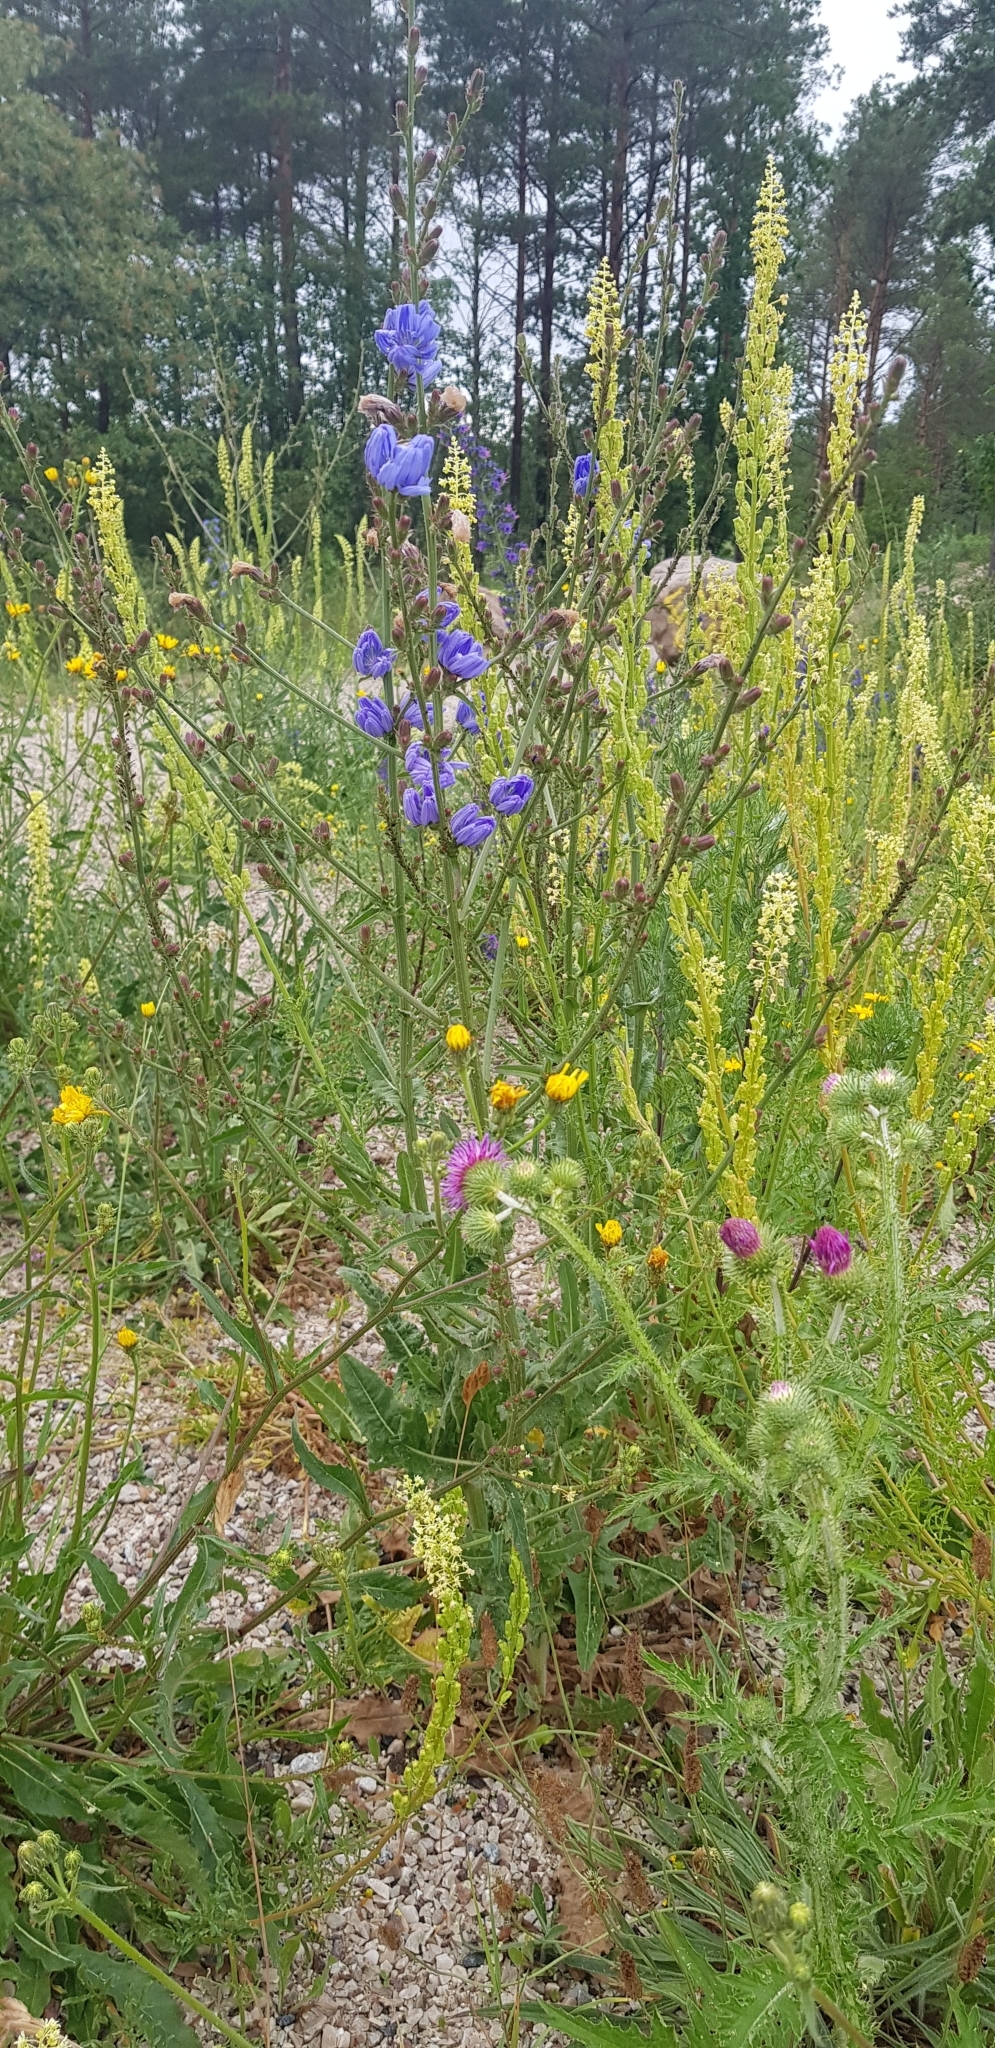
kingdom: Plantae
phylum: Tracheophyta
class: Magnoliopsida
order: Asterales
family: Asteraceae
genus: Cichorium
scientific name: Cichorium intybus
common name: Chicory
